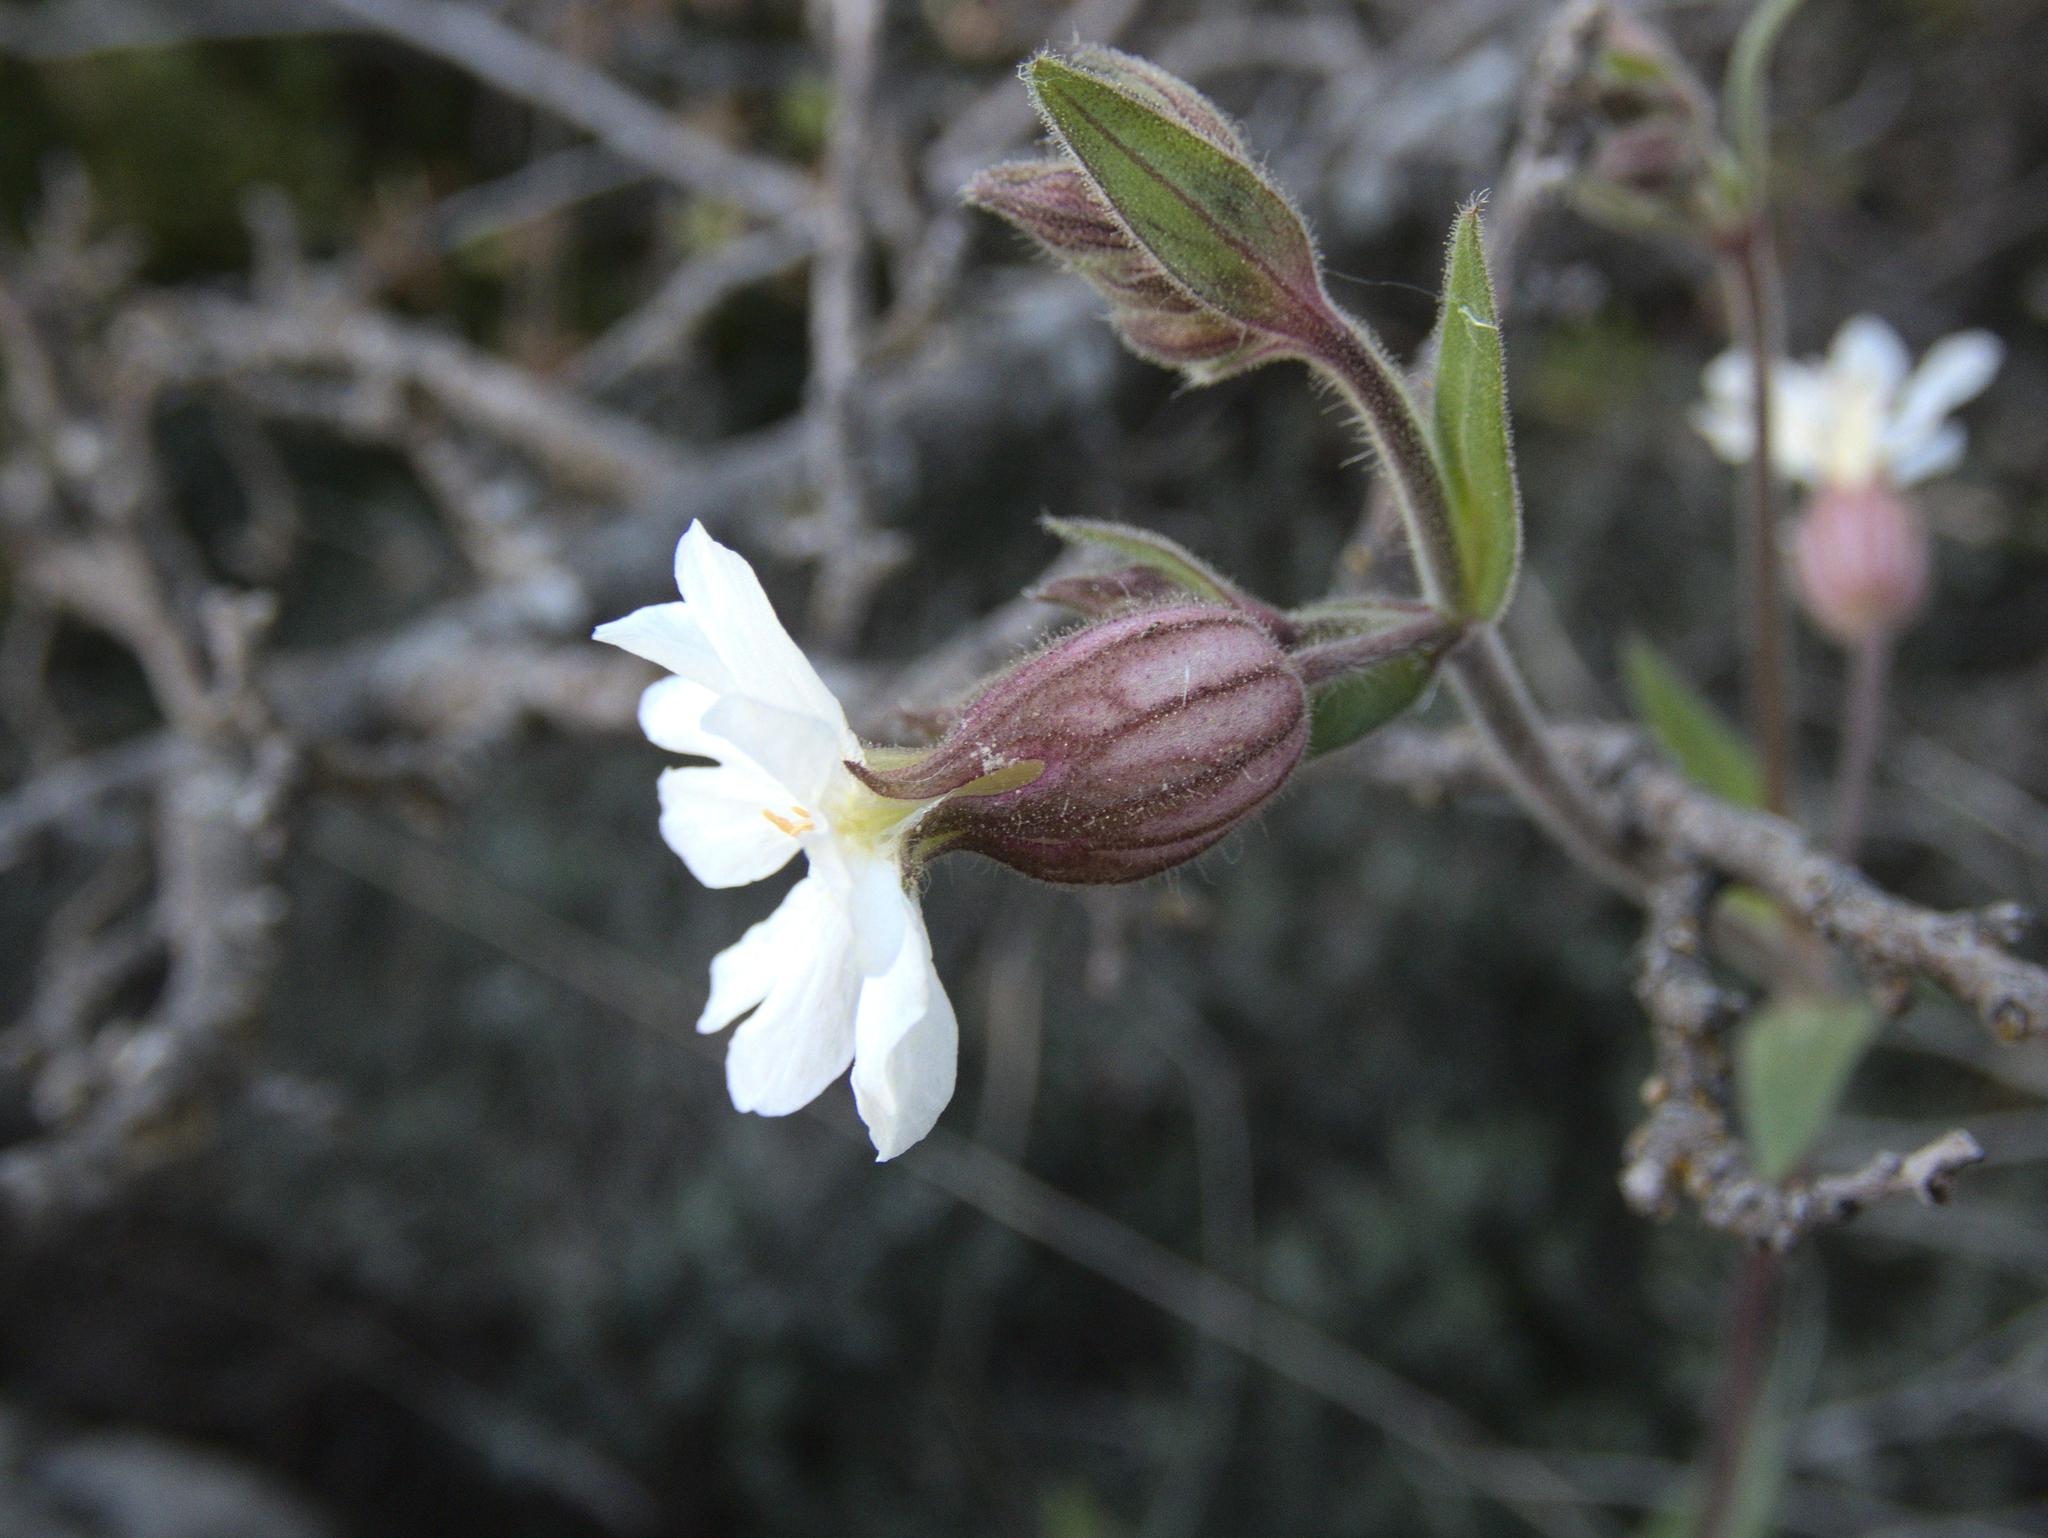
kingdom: Plantae
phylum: Tracheophyta
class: Magnoliopsida
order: Caryophyllales
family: Caryophyllaceae
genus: Silene
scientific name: Silene latifolia
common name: White campion
